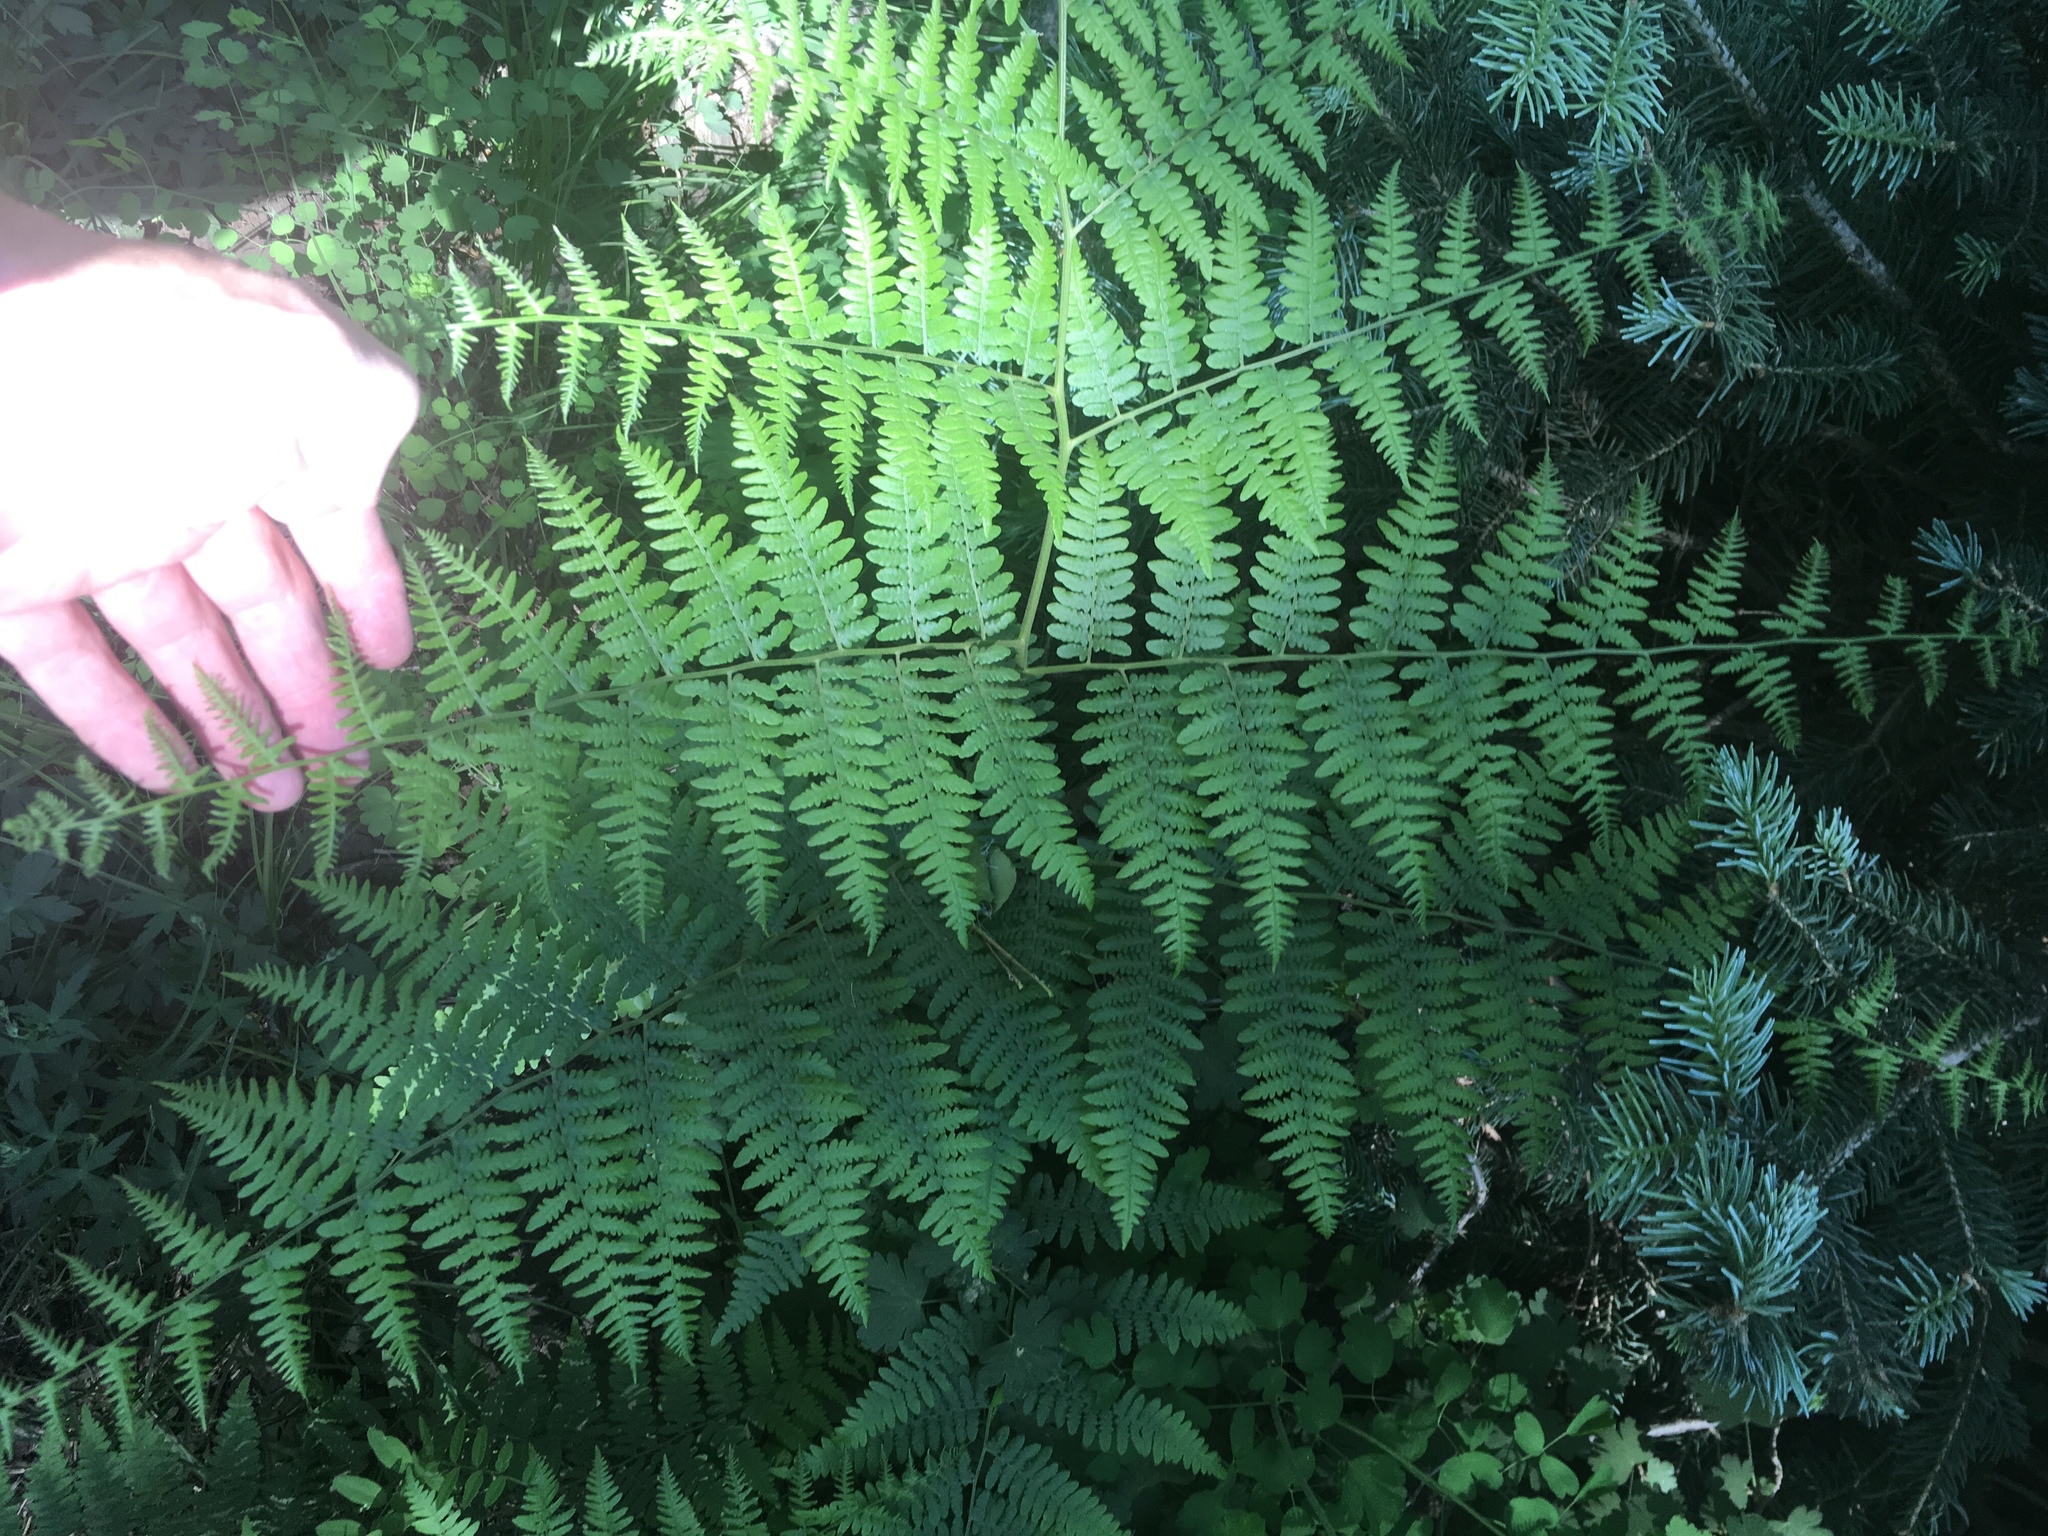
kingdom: Plantae
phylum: Tracheophyta
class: Polypodiopsida
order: Polypodiales
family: Dennstaedtiaceae
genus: Pteridium
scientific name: Pteridium aquilinum
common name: Bracken
